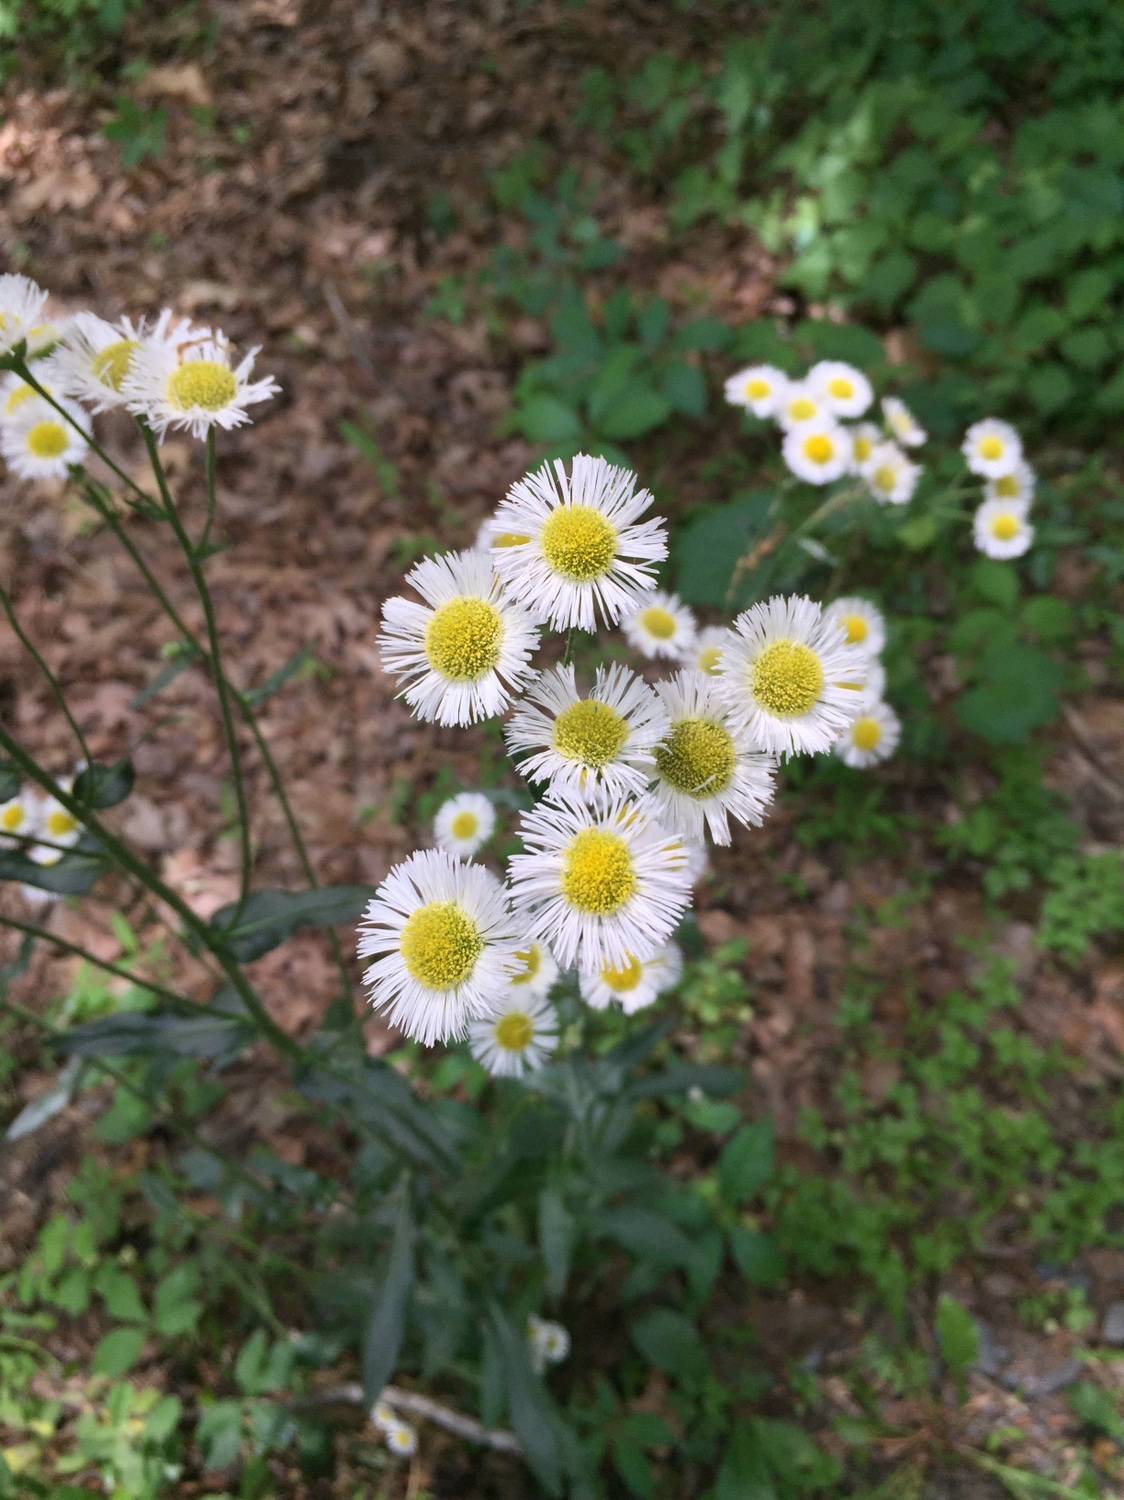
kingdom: Plantae
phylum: Tracheophyta
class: Magnoliopsida
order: Asterales
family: Asteraceae
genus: Erigeron
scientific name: Erigeron philadelphicus
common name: Robin's-plantain
